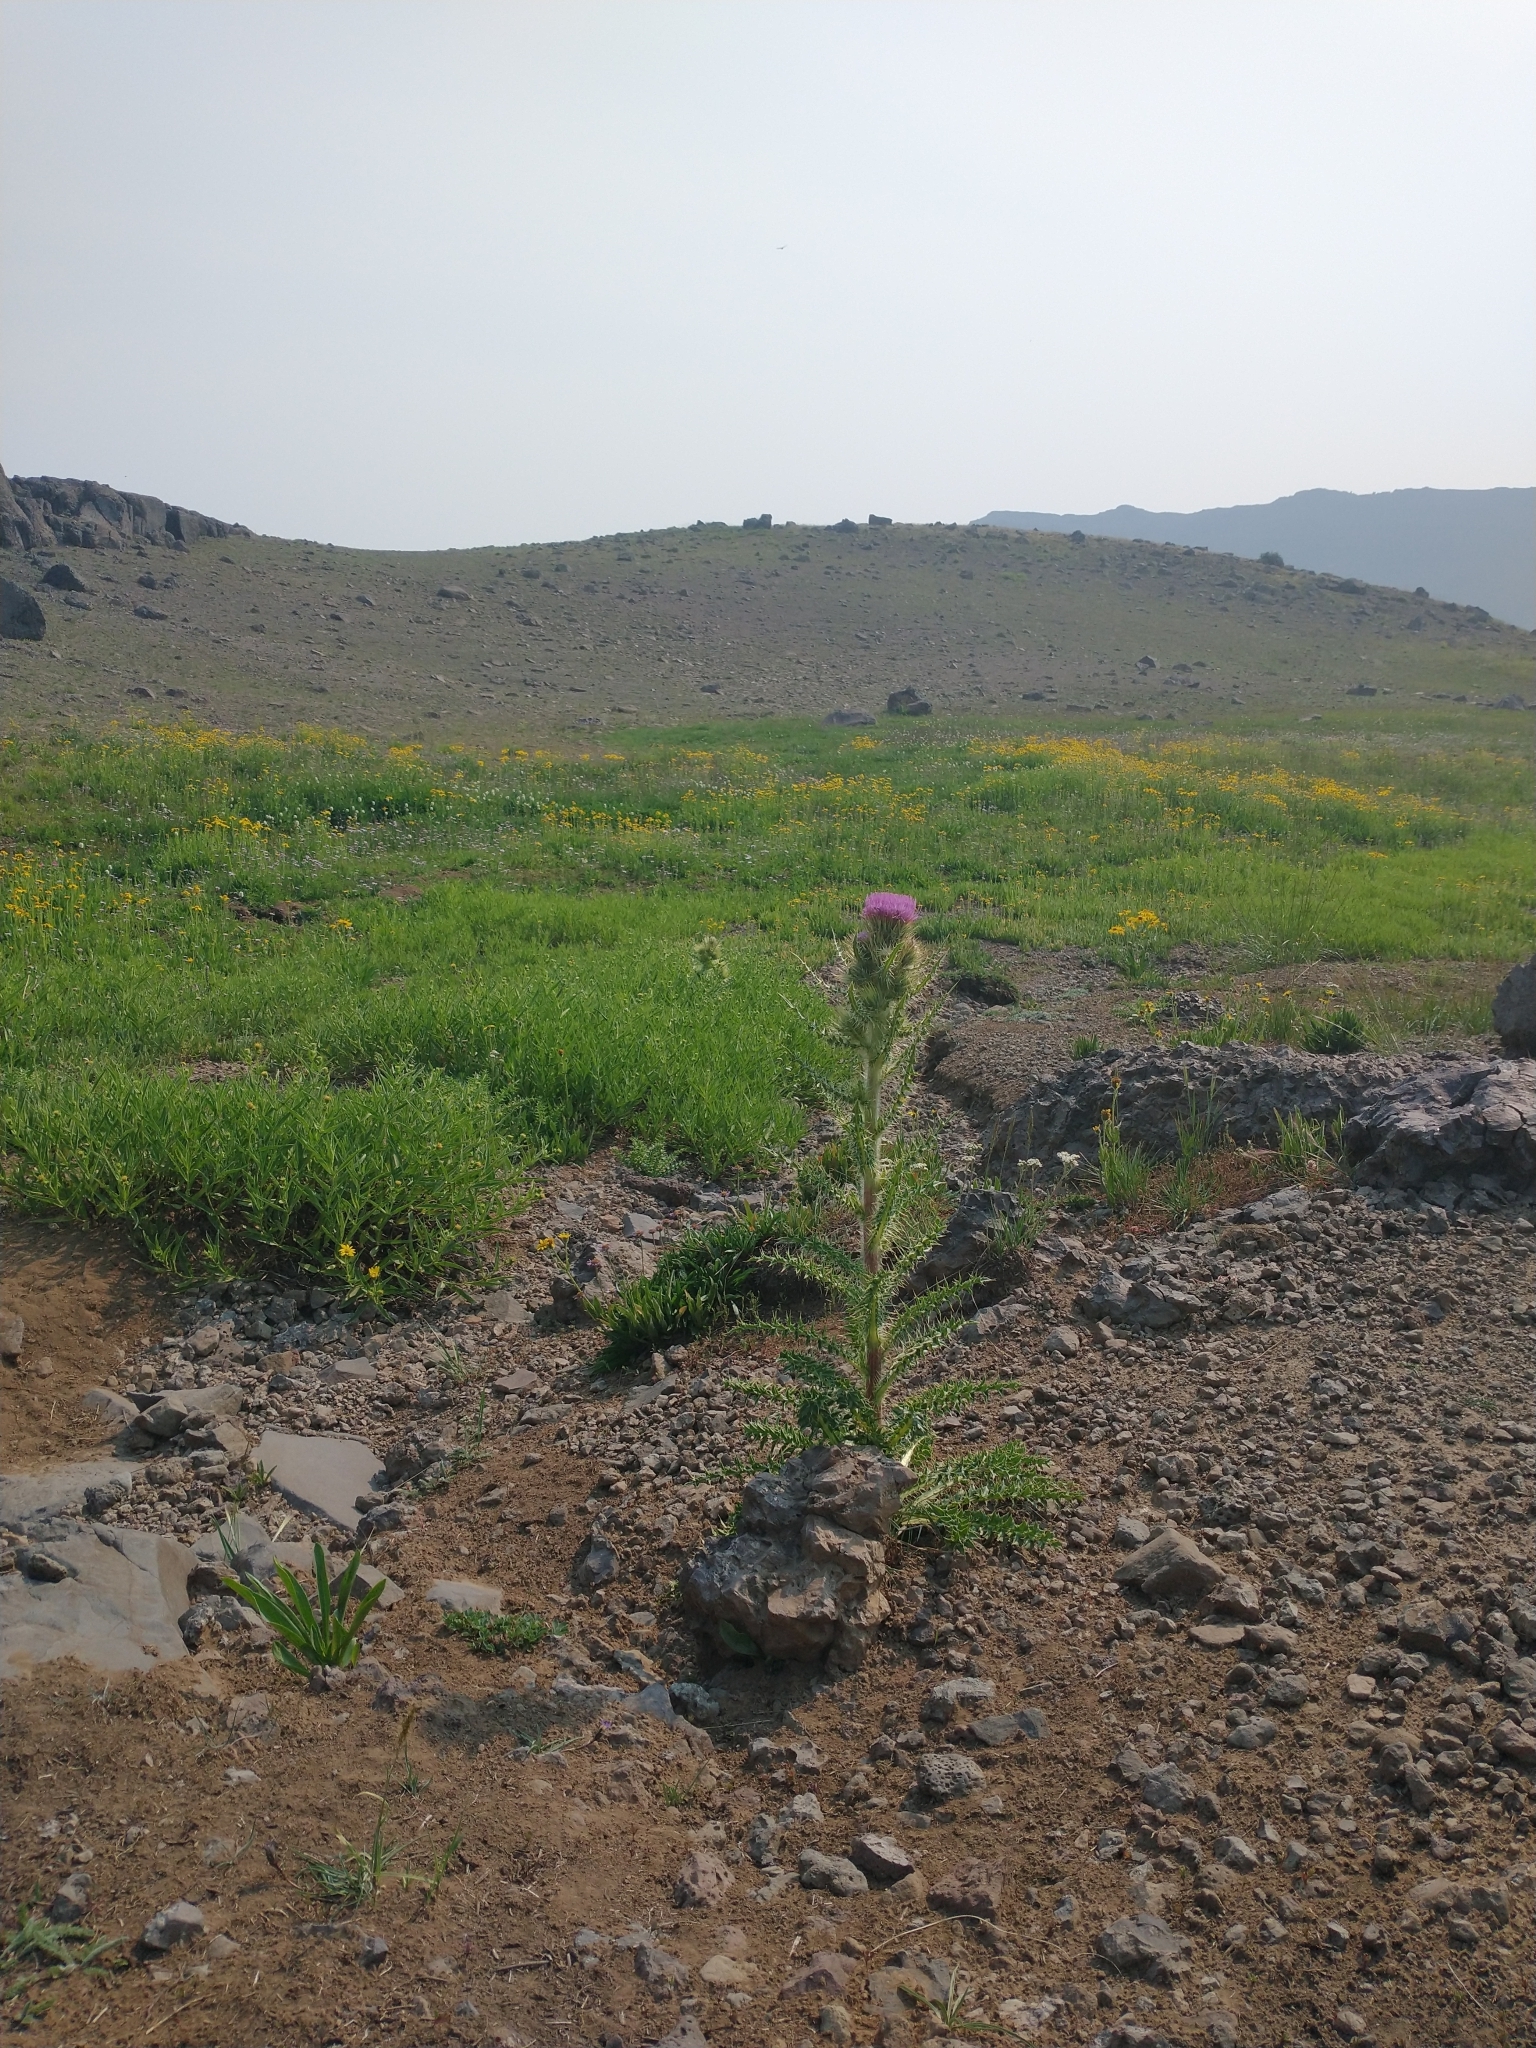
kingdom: Plantae
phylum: Tracheophyta
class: Magnoliopsida
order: Asterales
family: Asteraceae
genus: Cirsium
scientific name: Cirsium peckii
